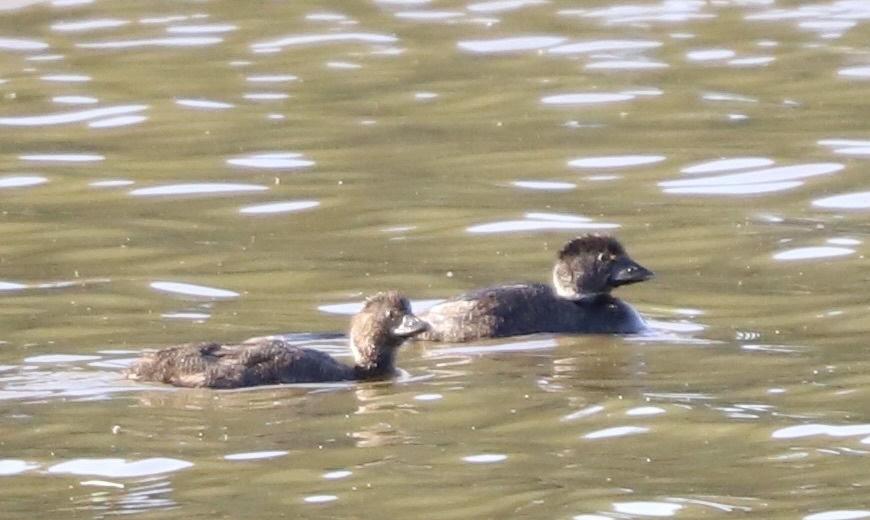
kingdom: Animalia
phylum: Chordata
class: Aves
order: Anseriformes
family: Anatidae
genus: Biziura
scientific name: Biziura lobata
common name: Musk duck
